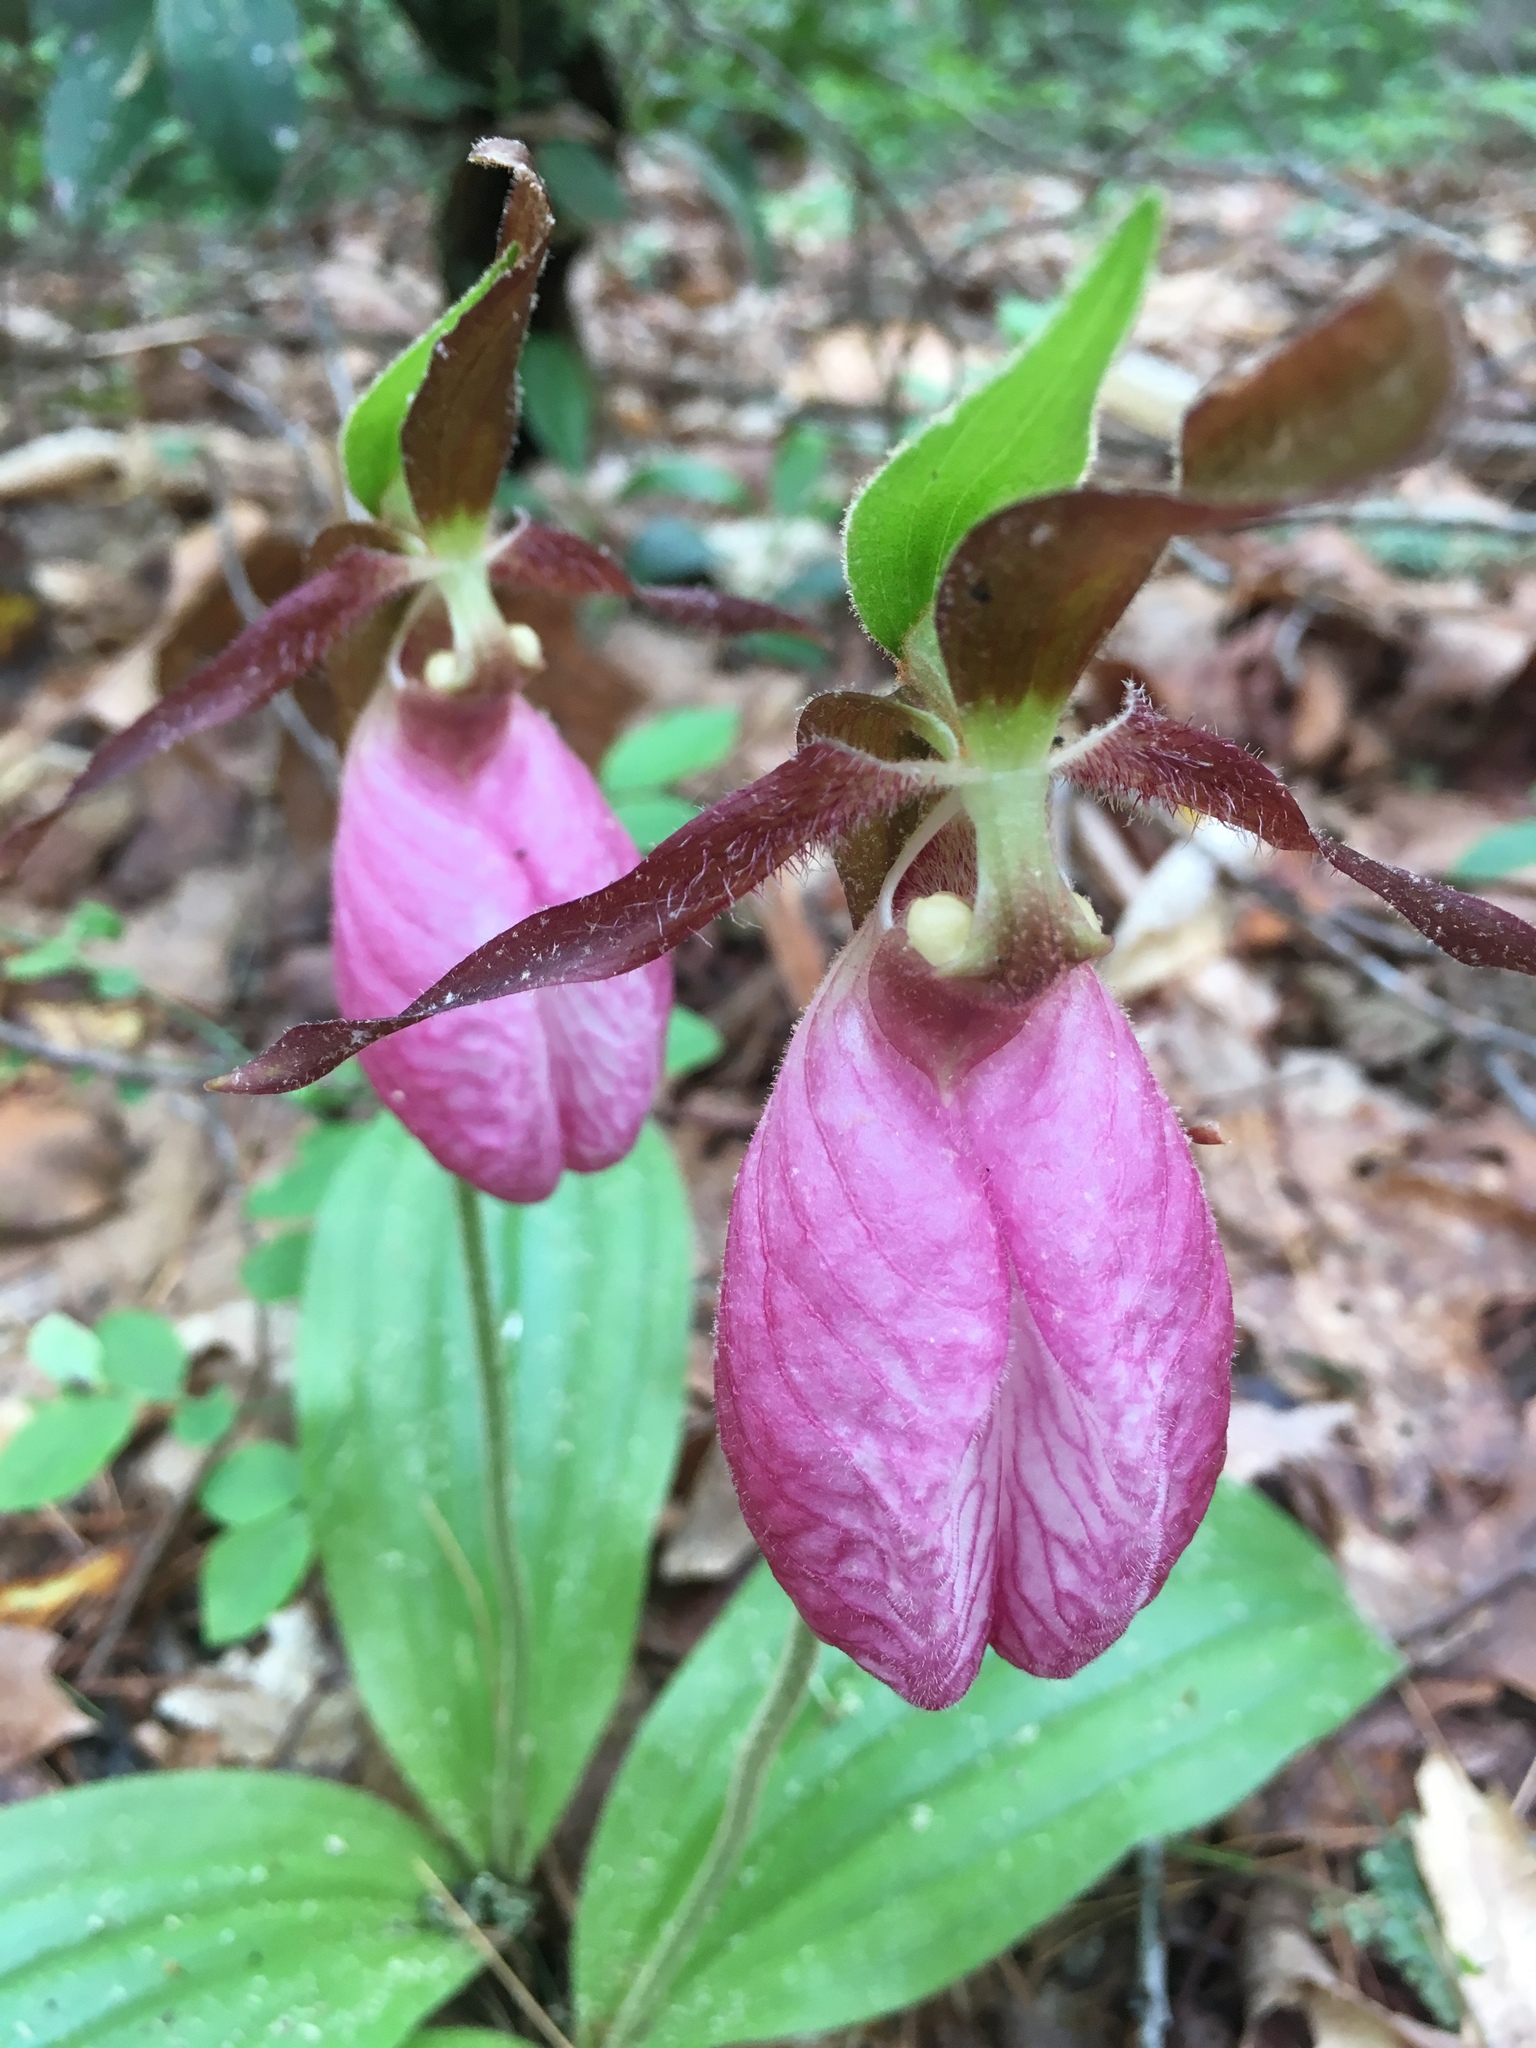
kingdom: Plantae
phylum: Tracheophyta
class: Liliopsida
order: Asparagales
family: Orchidaceae
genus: Cypripedium
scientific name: Cypripedium acaule
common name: Pink lady's-slipper
